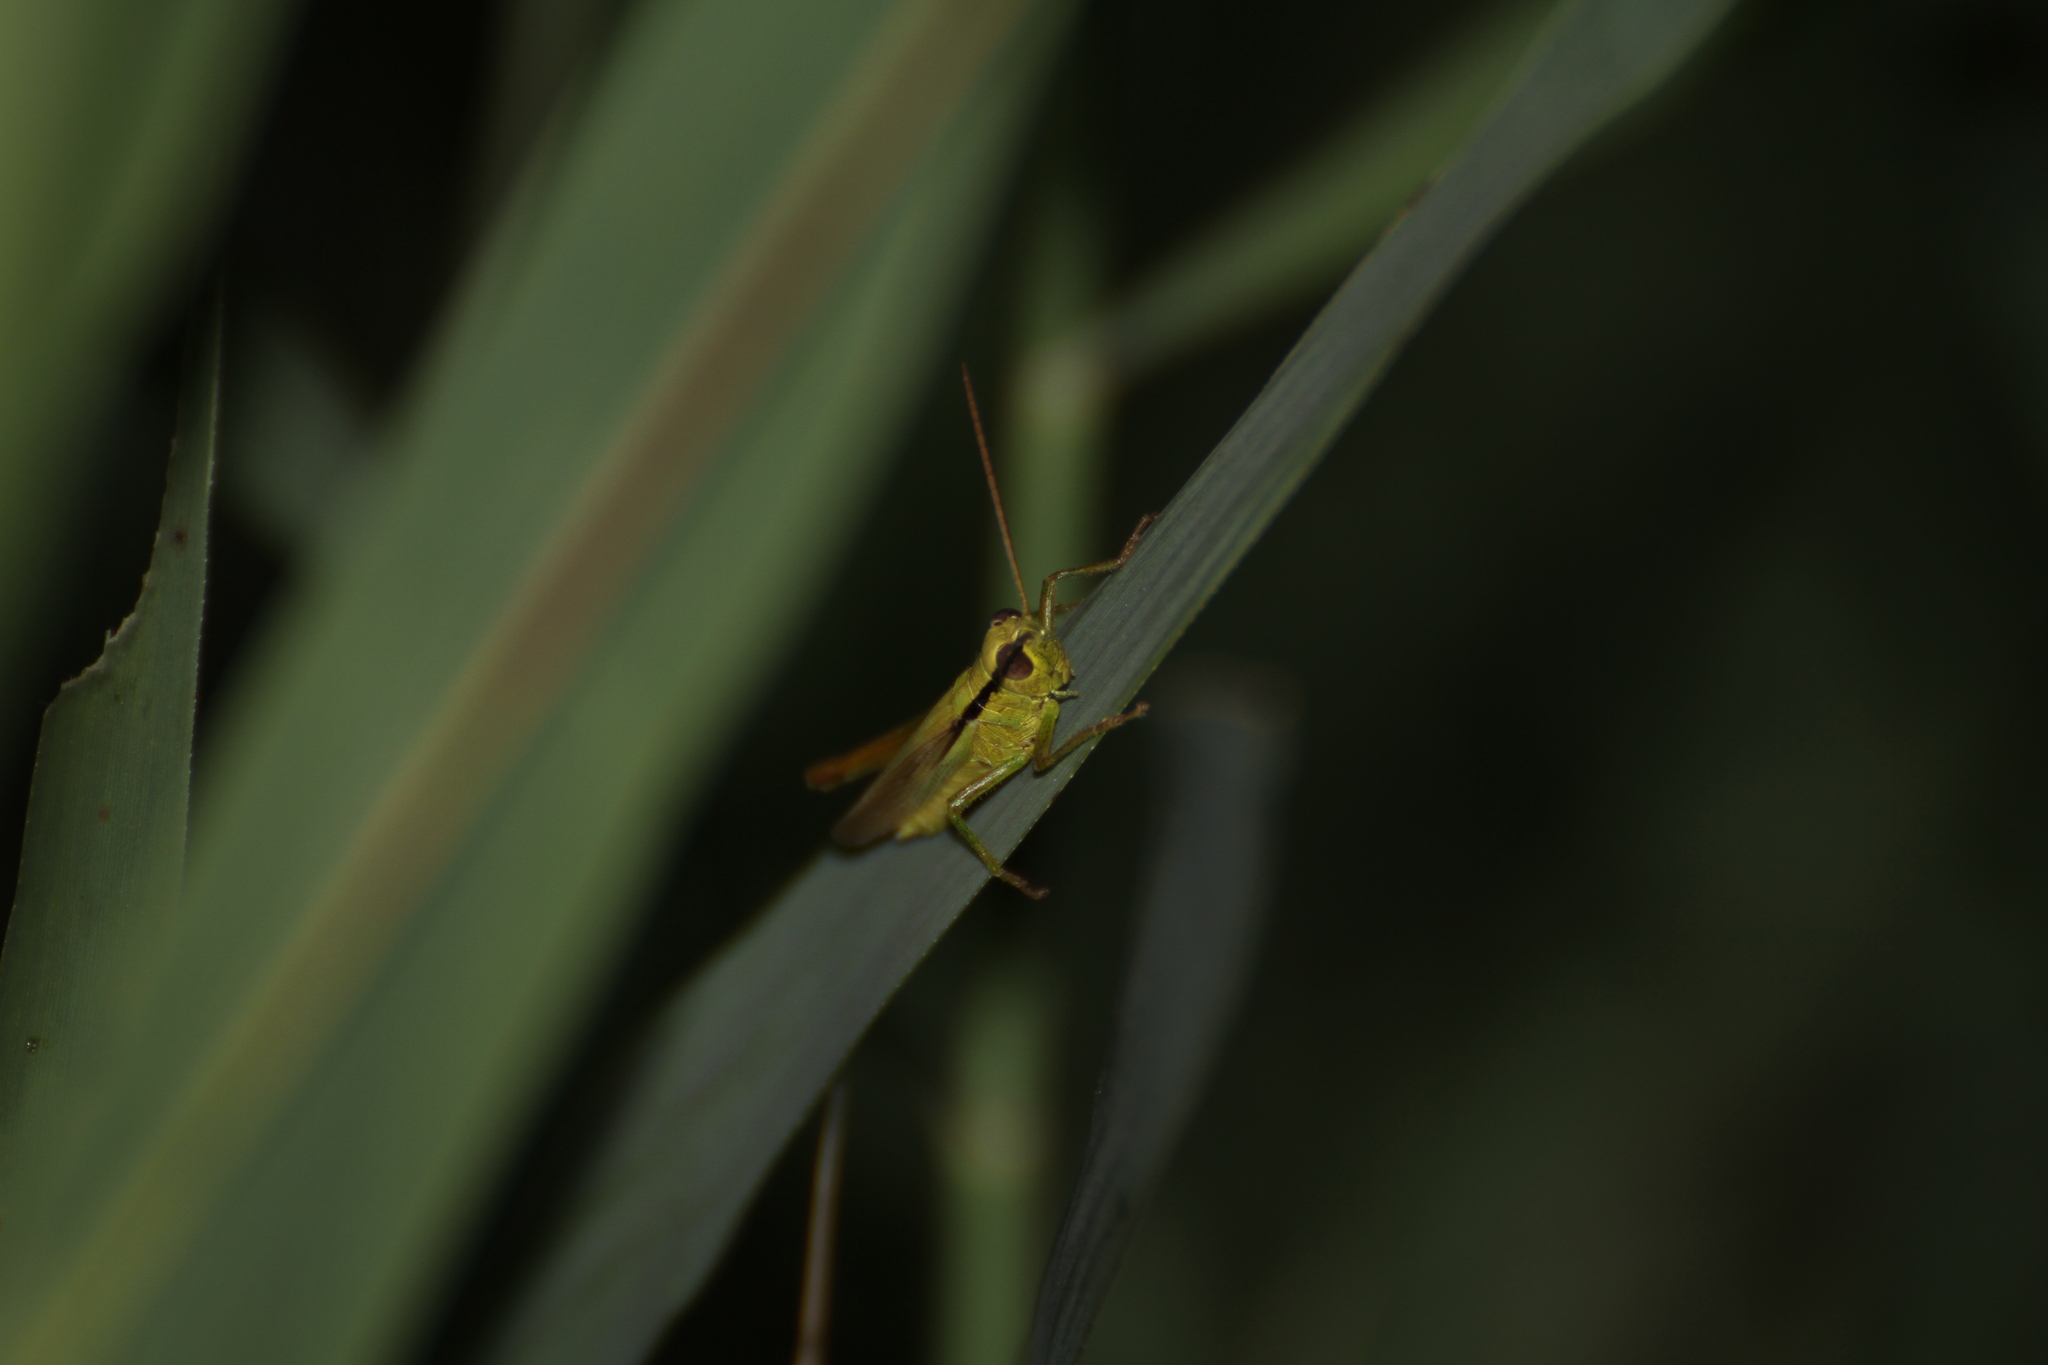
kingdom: Animalia
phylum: Arthropoda
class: Insecta
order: Orthoptera
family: Acrididae
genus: Mecostethus
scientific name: Mecostethus parapleurus
